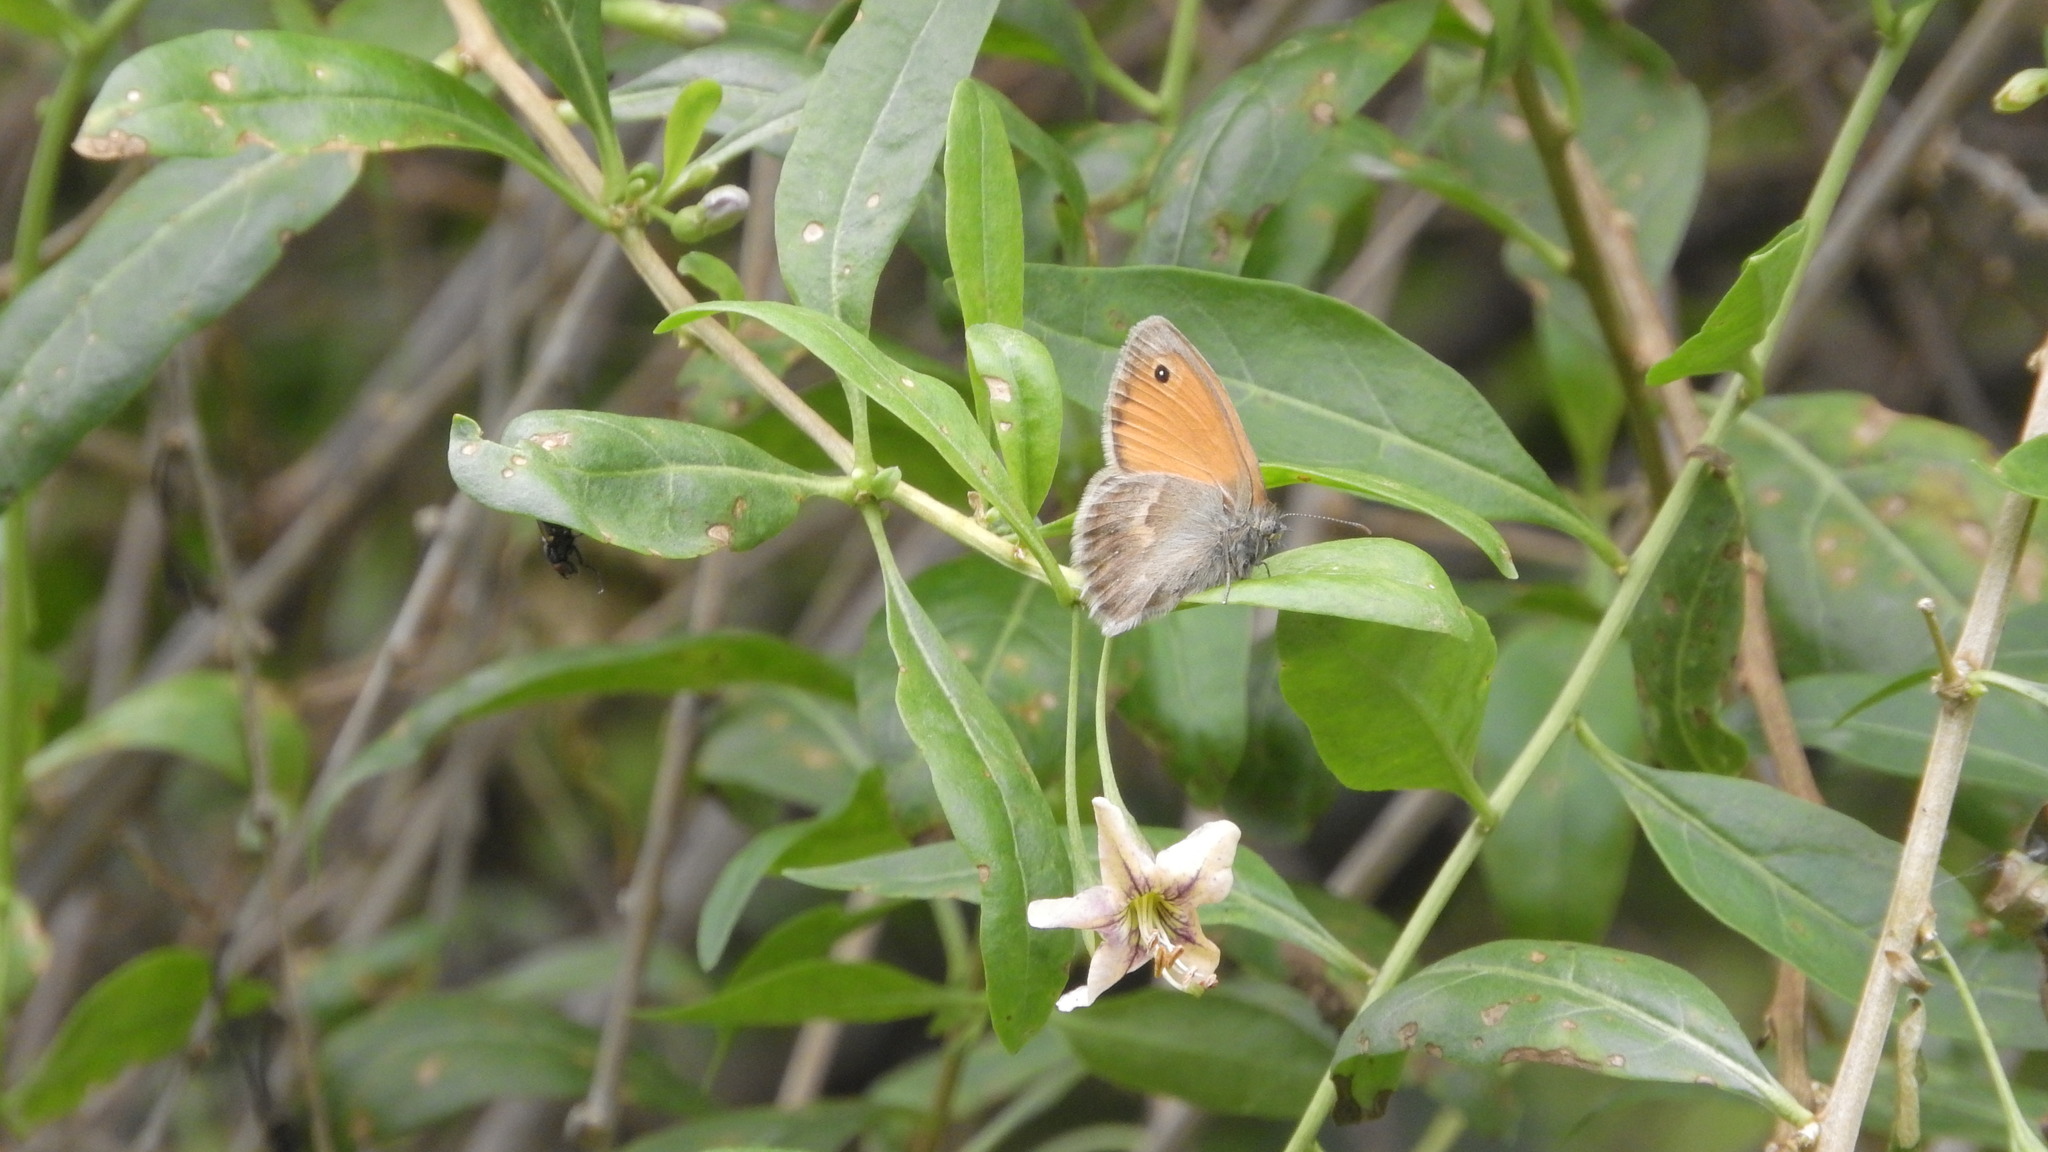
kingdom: Animalia
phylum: Arthropoda
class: Insecta
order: Lepidoptera
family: Nymphalidae
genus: Coenonympha
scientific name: Coenonympha pamphilus
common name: Small heath
